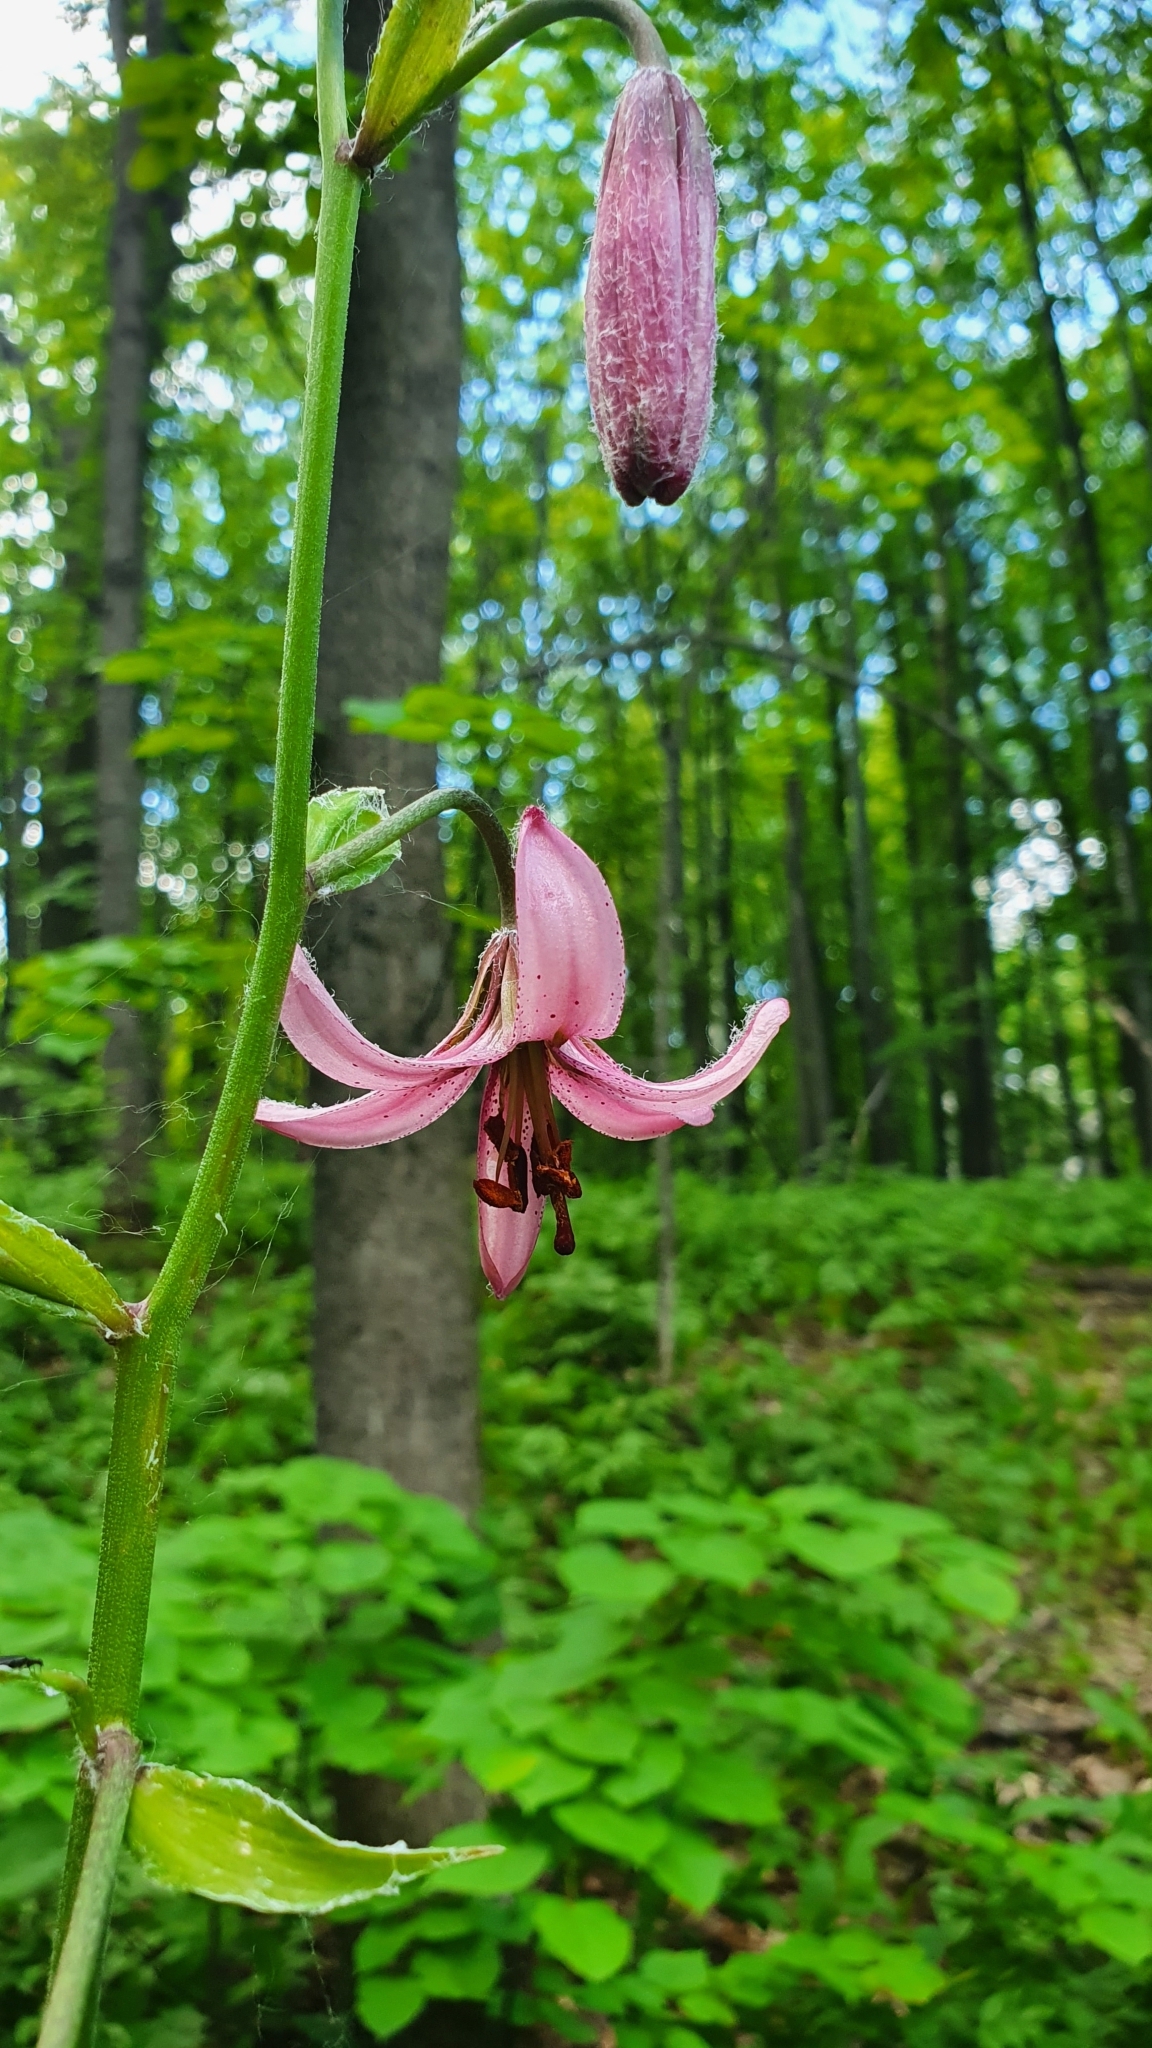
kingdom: Plantae
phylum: Tracheophyta
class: Liliopsida
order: Liliales
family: Liliaceae
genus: Lilium
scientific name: Lilium martagon
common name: Martagon lily
